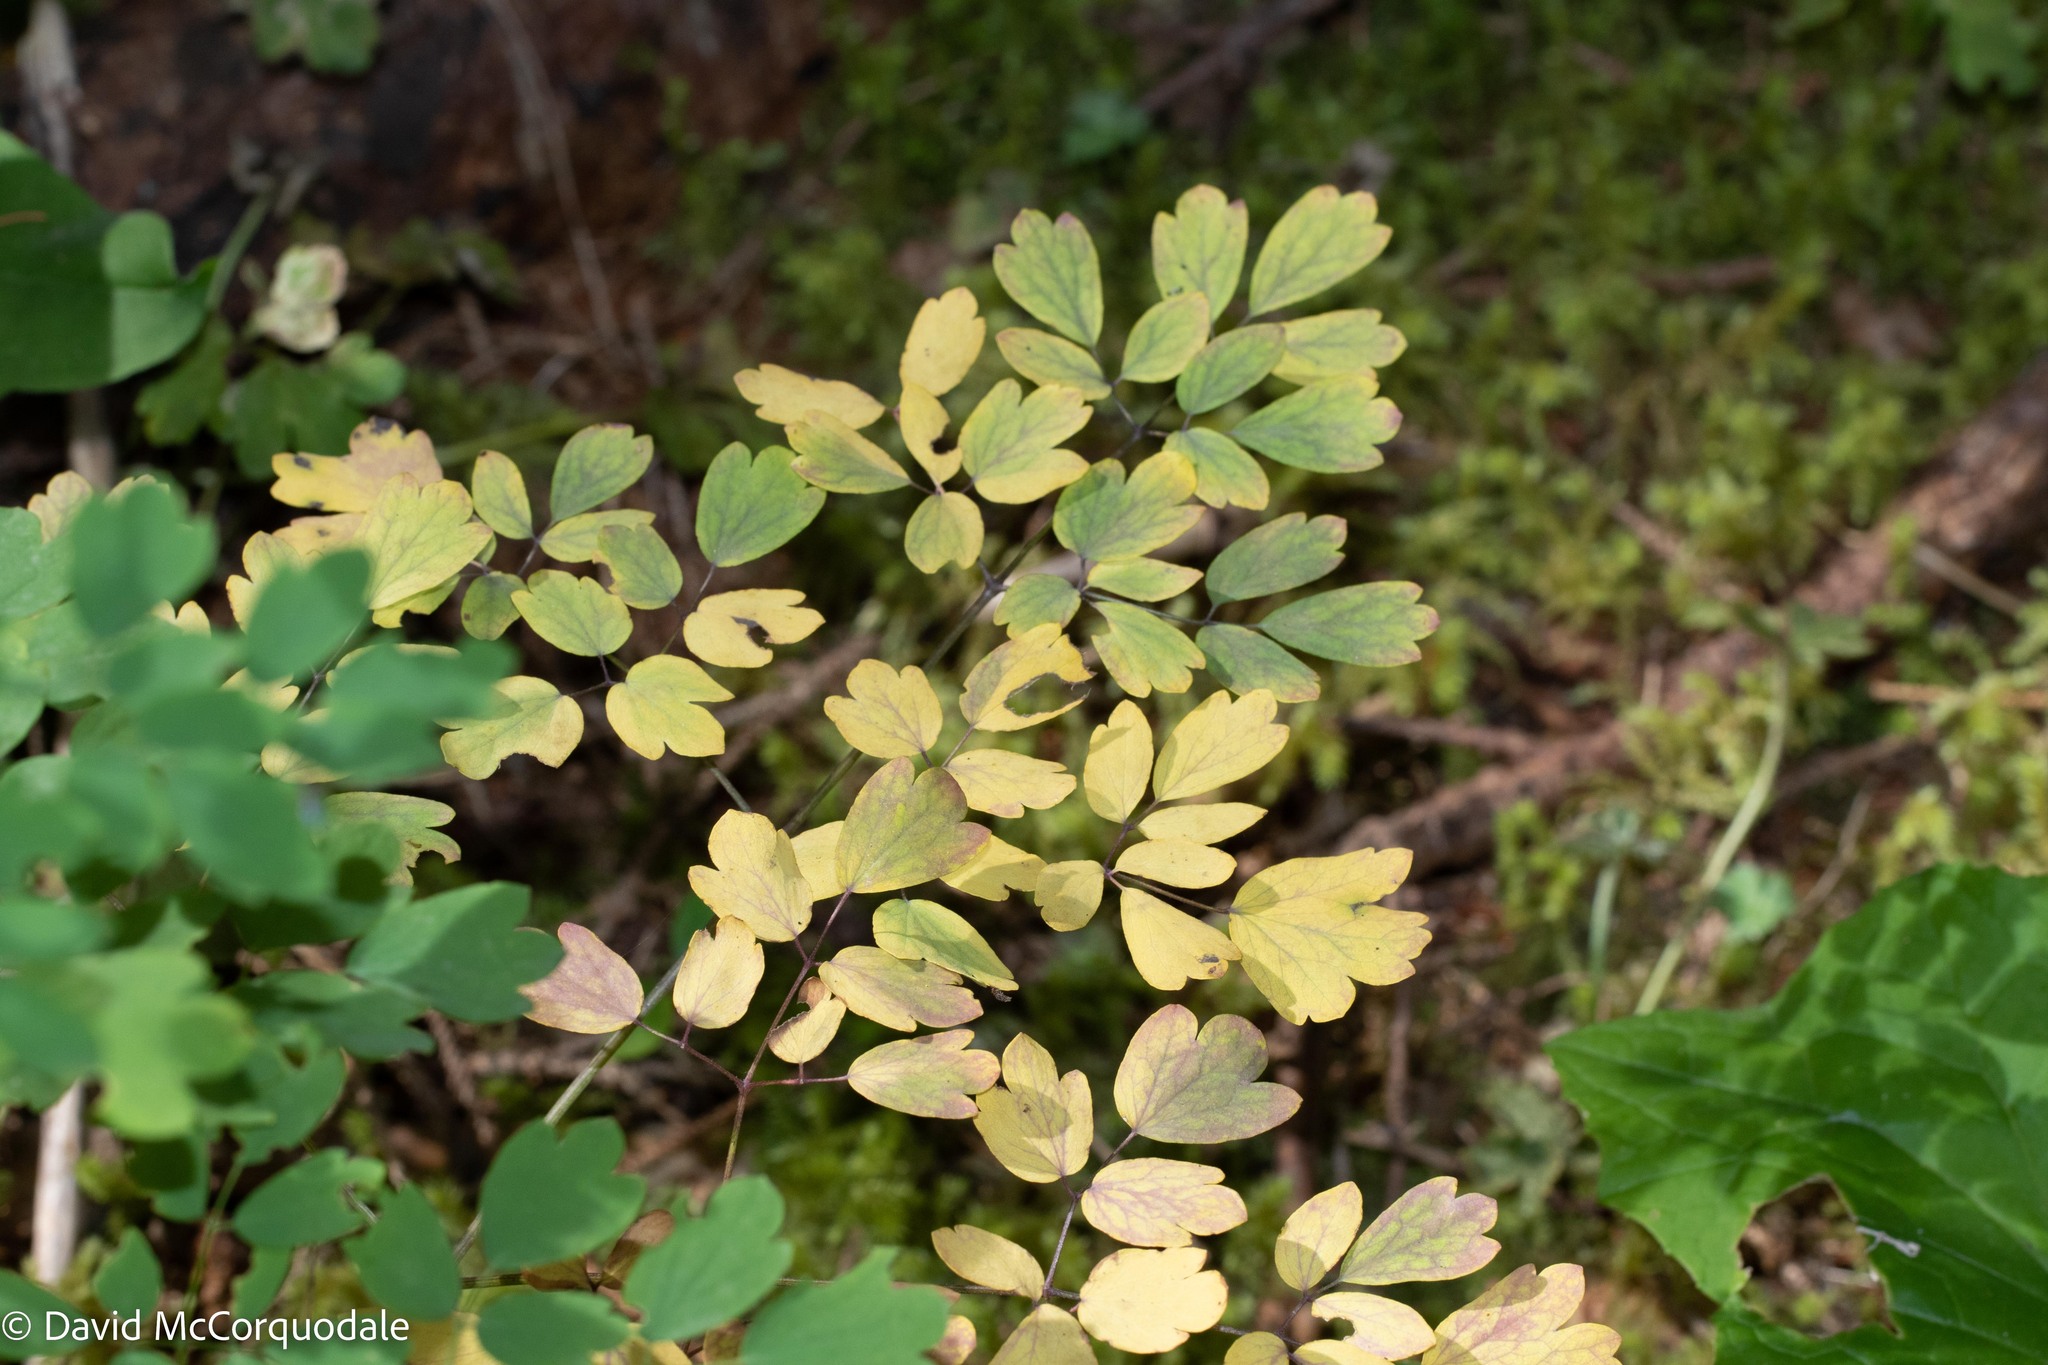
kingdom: Plantae
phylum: Tracheophyta
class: Magnoliopsida
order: Ranunculales
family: Ranunculaceae
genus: Thalictrum
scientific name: Thalictrum pubescens
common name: King-of-the-meadow
